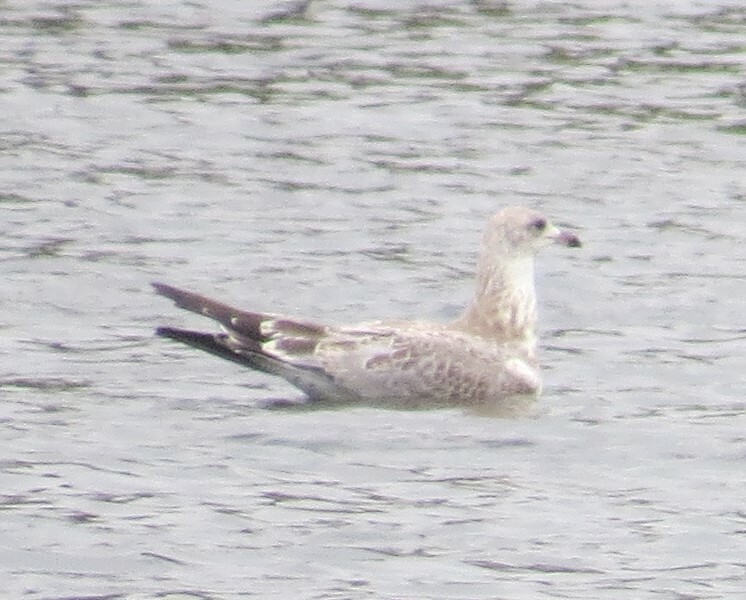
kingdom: Animalia
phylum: Chordata
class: Aves
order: Charadriiformes
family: Laridae
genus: Larus
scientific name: Larus delawarensis
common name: Ring-billed gull
